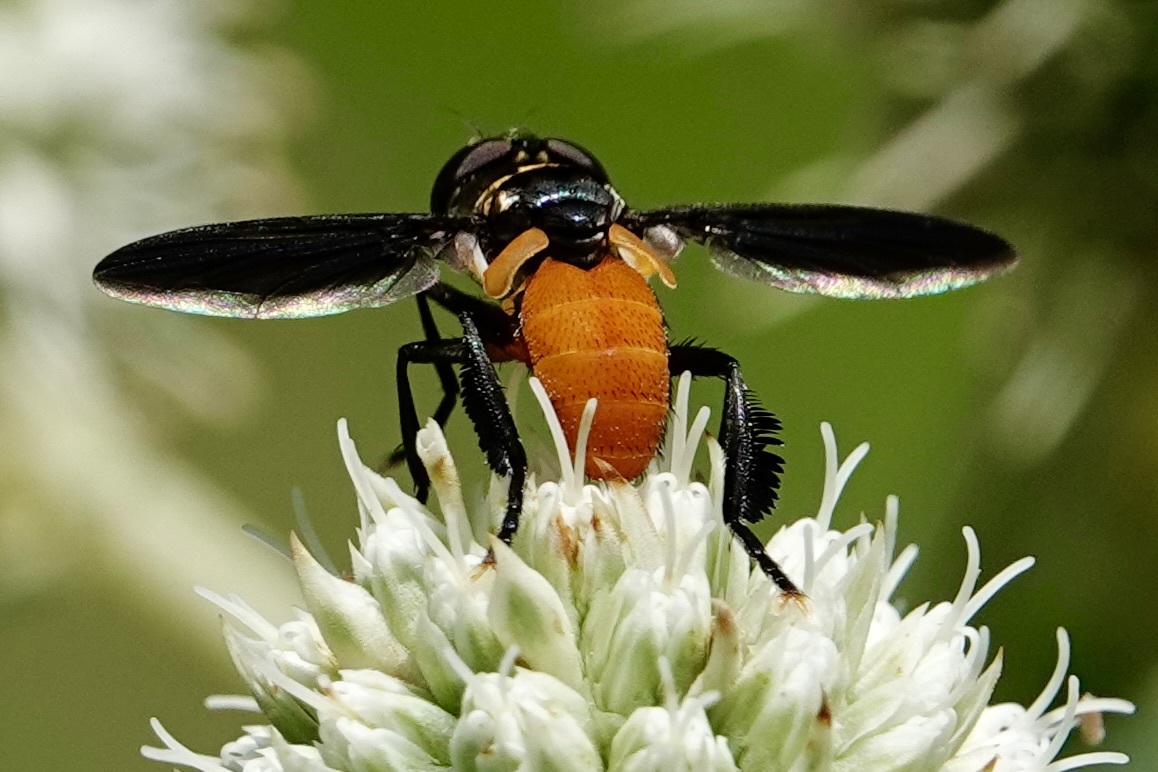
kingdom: Animalia
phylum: Arthropoda
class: Insecta
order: Diptera
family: Tachinidae
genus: Trichopoda
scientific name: Trichopoda pennipes
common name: Tachinid fly
